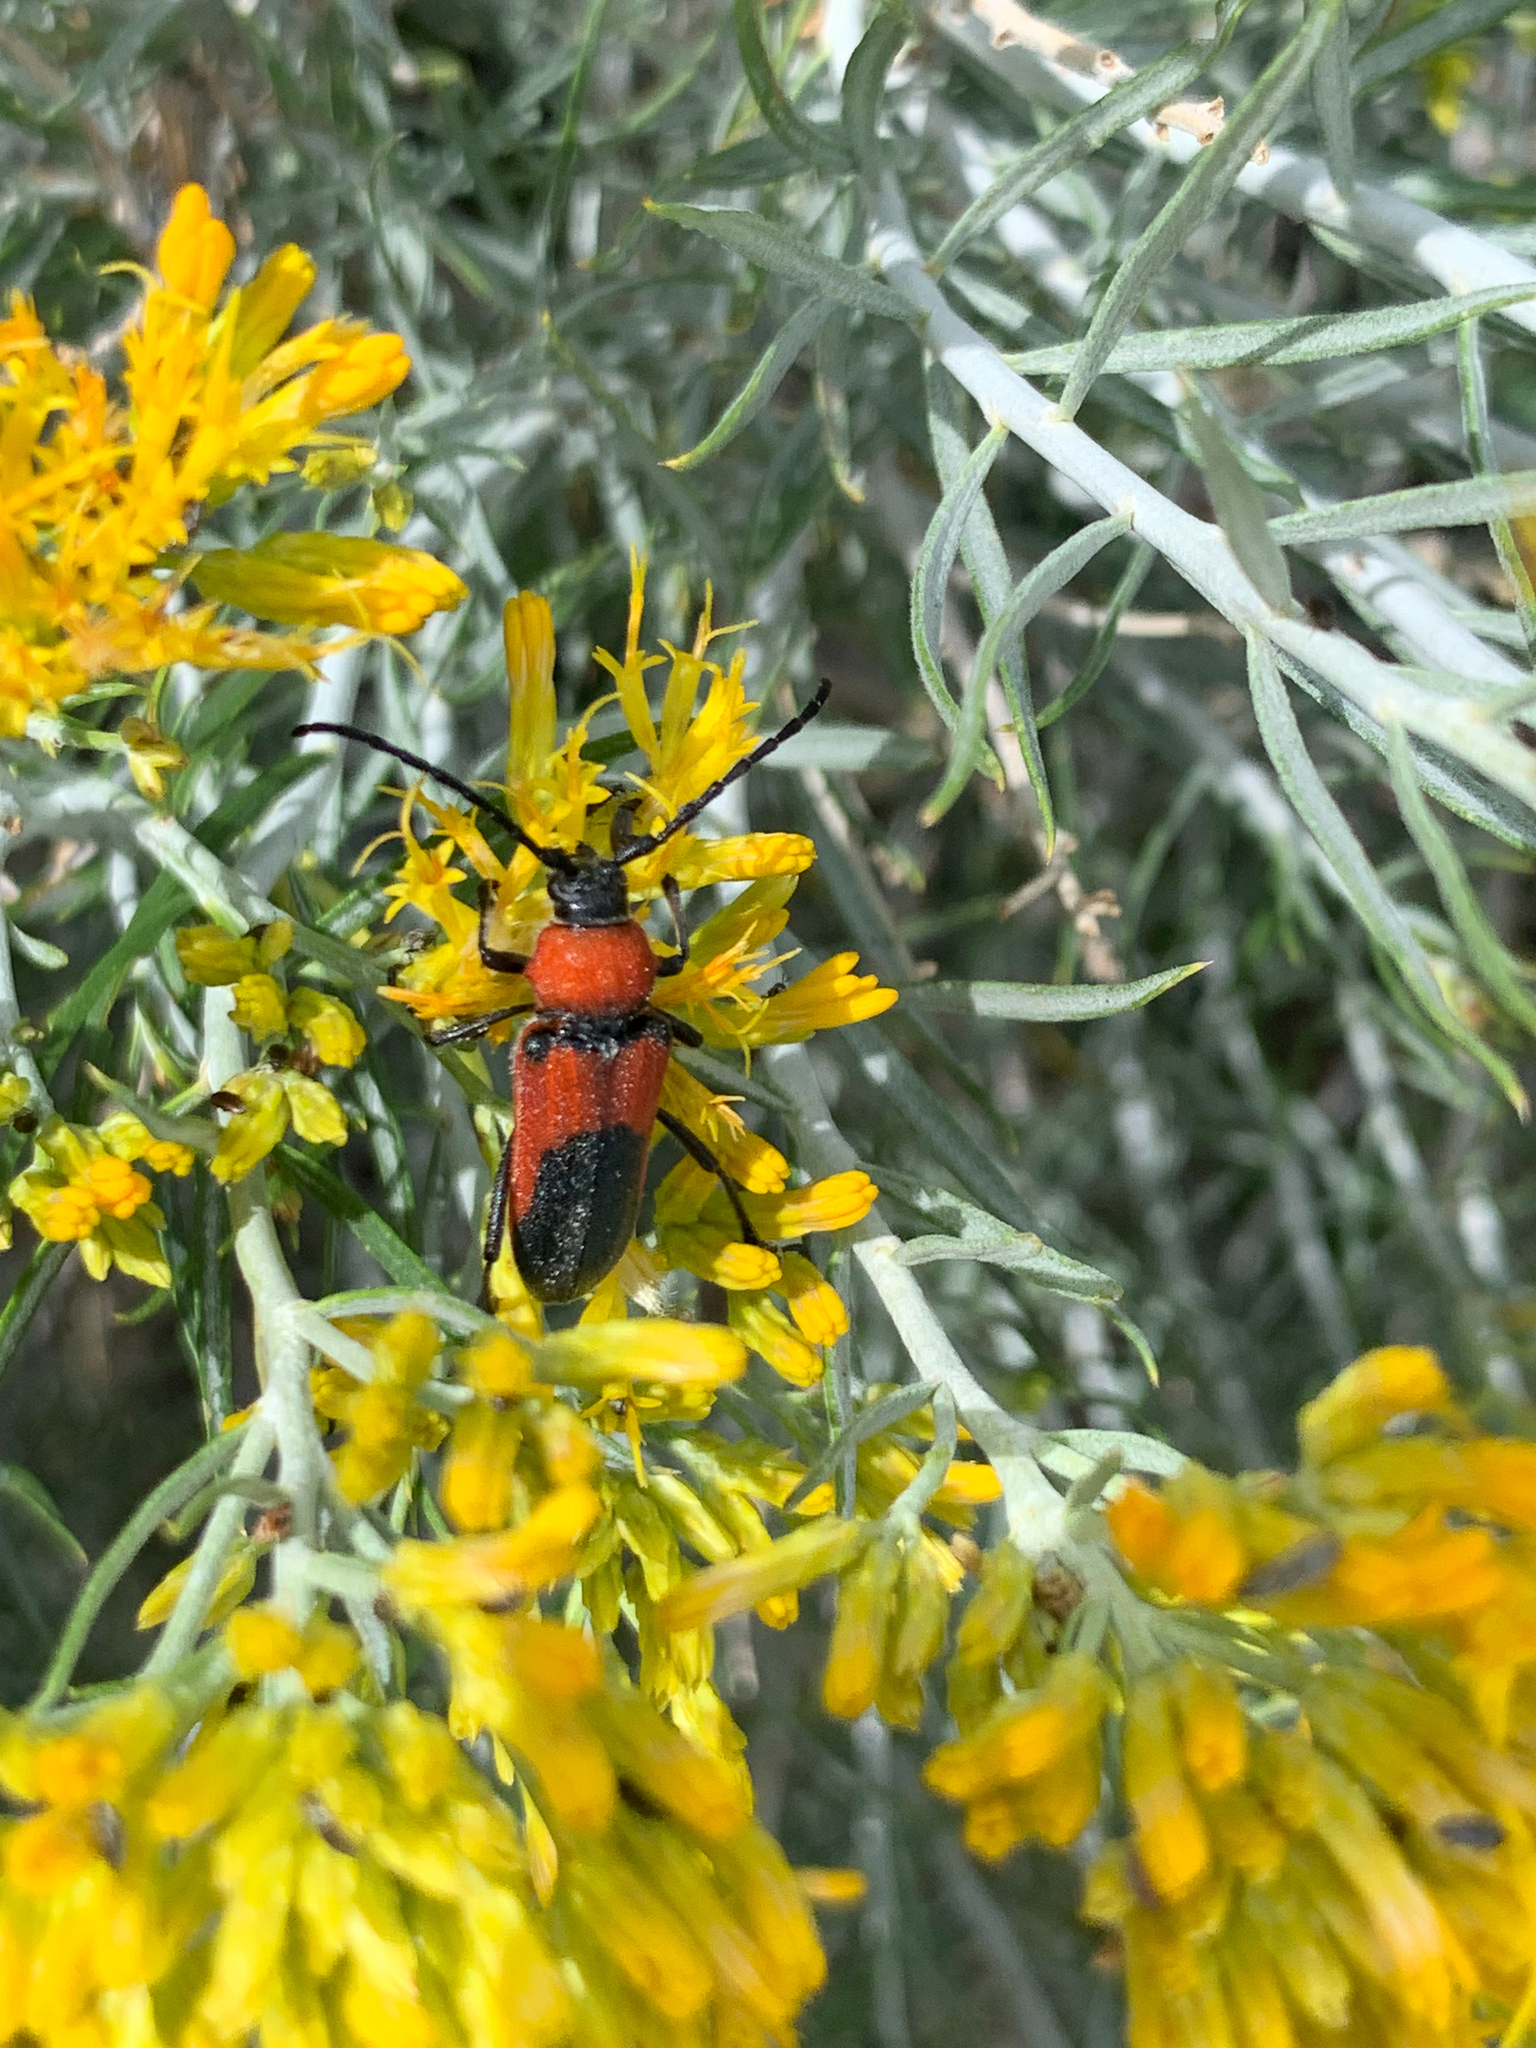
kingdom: Animalia
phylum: Arthropoda
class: Insecta
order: Coleoptera
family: Cerambycidae
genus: Crossidius
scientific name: Crossidius coralinus
